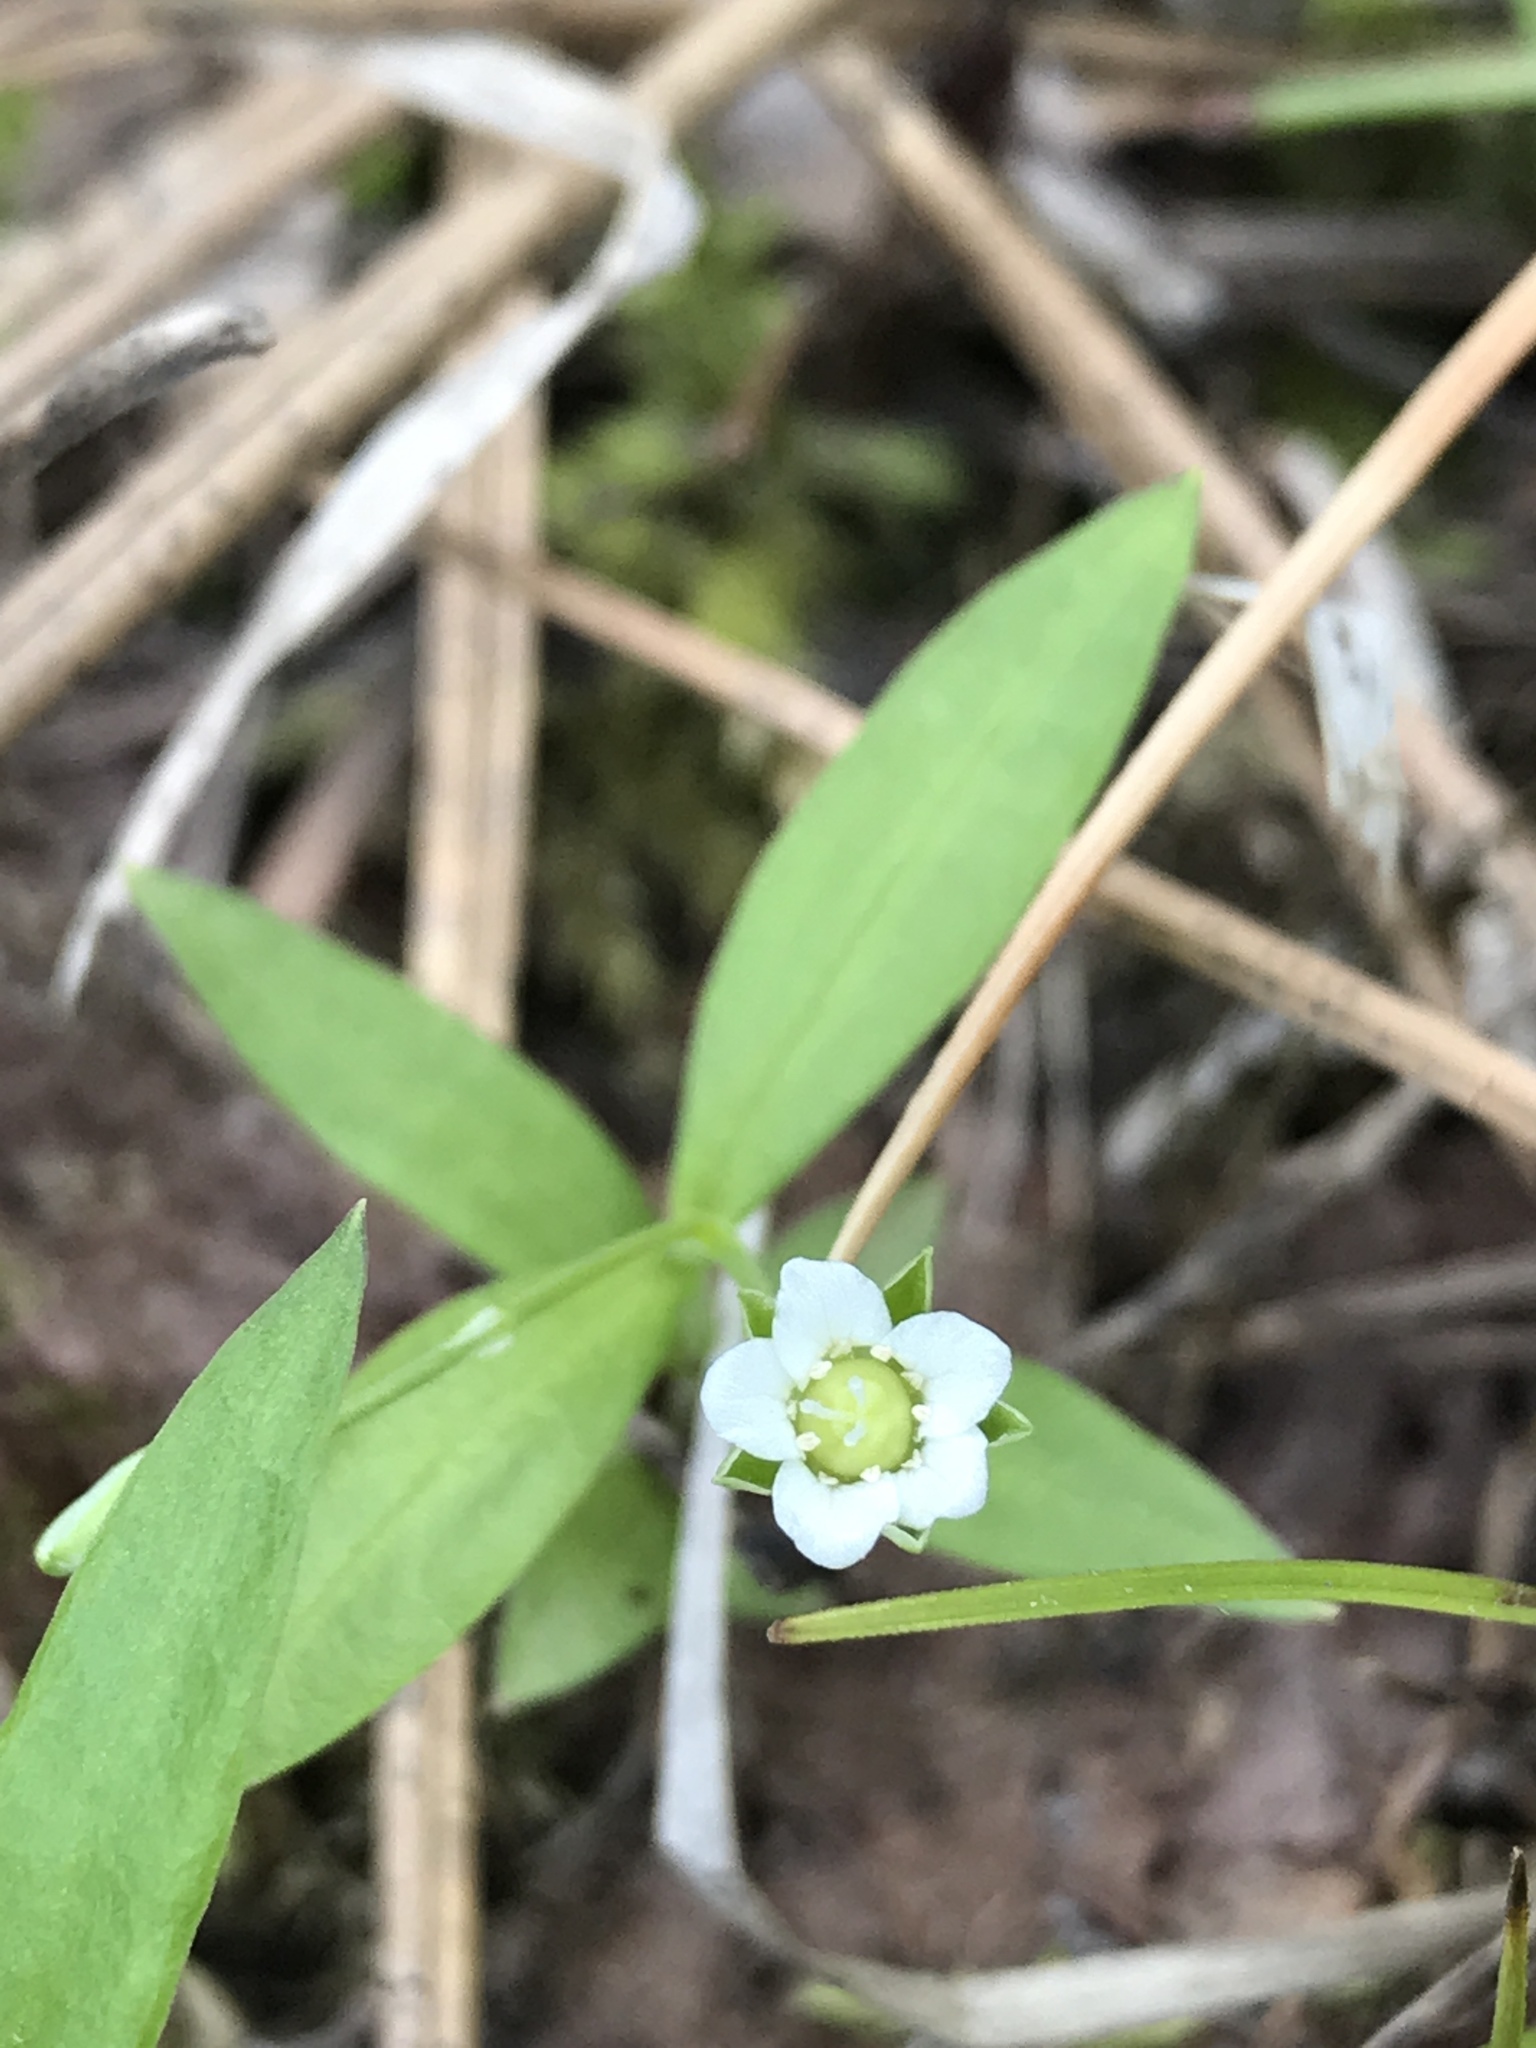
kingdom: Plantae
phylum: Tracheophyta
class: Magnoliopsida
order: Caryophyllales
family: Caryophyllaceae
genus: Moehringia
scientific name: Moehringia macrophylla
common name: Big-leaf sandwort
